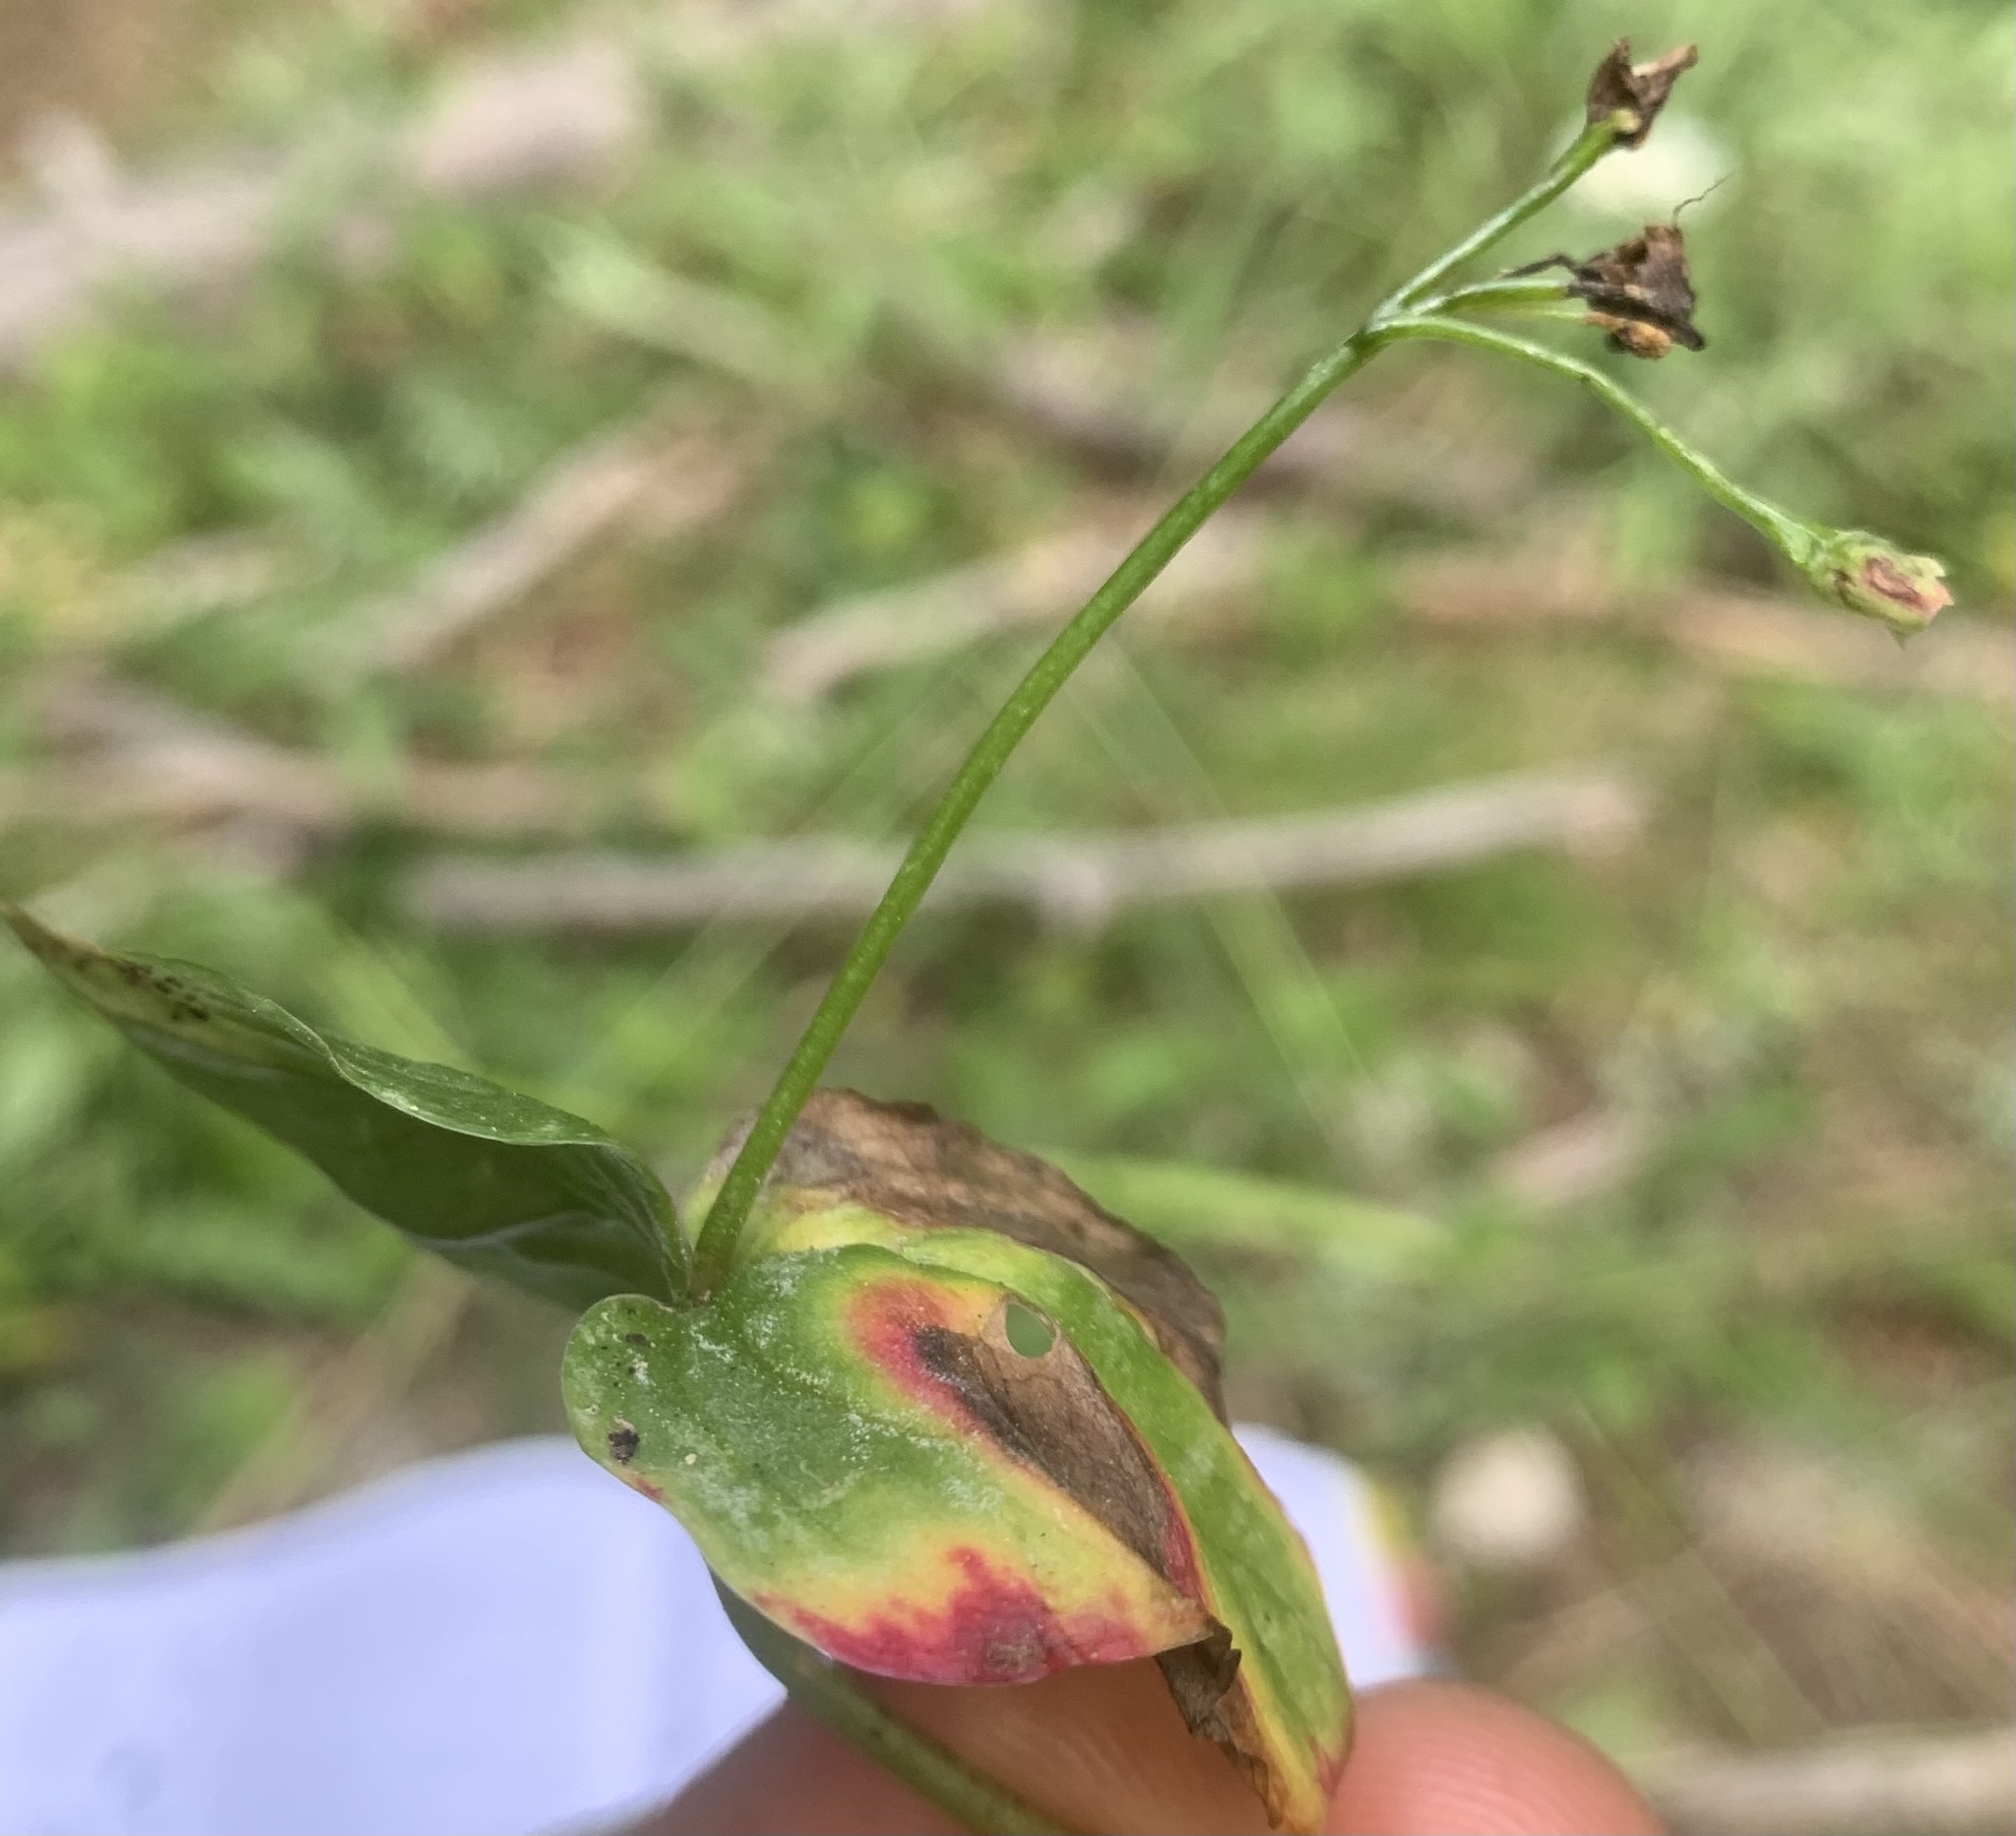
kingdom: Plantae
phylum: Tracheophyta
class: Magnoliopsida
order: Caryophyllales
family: Montiaceae
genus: Claytonia
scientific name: Claytonia cordifolia
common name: Broad-leaved spring beauty
